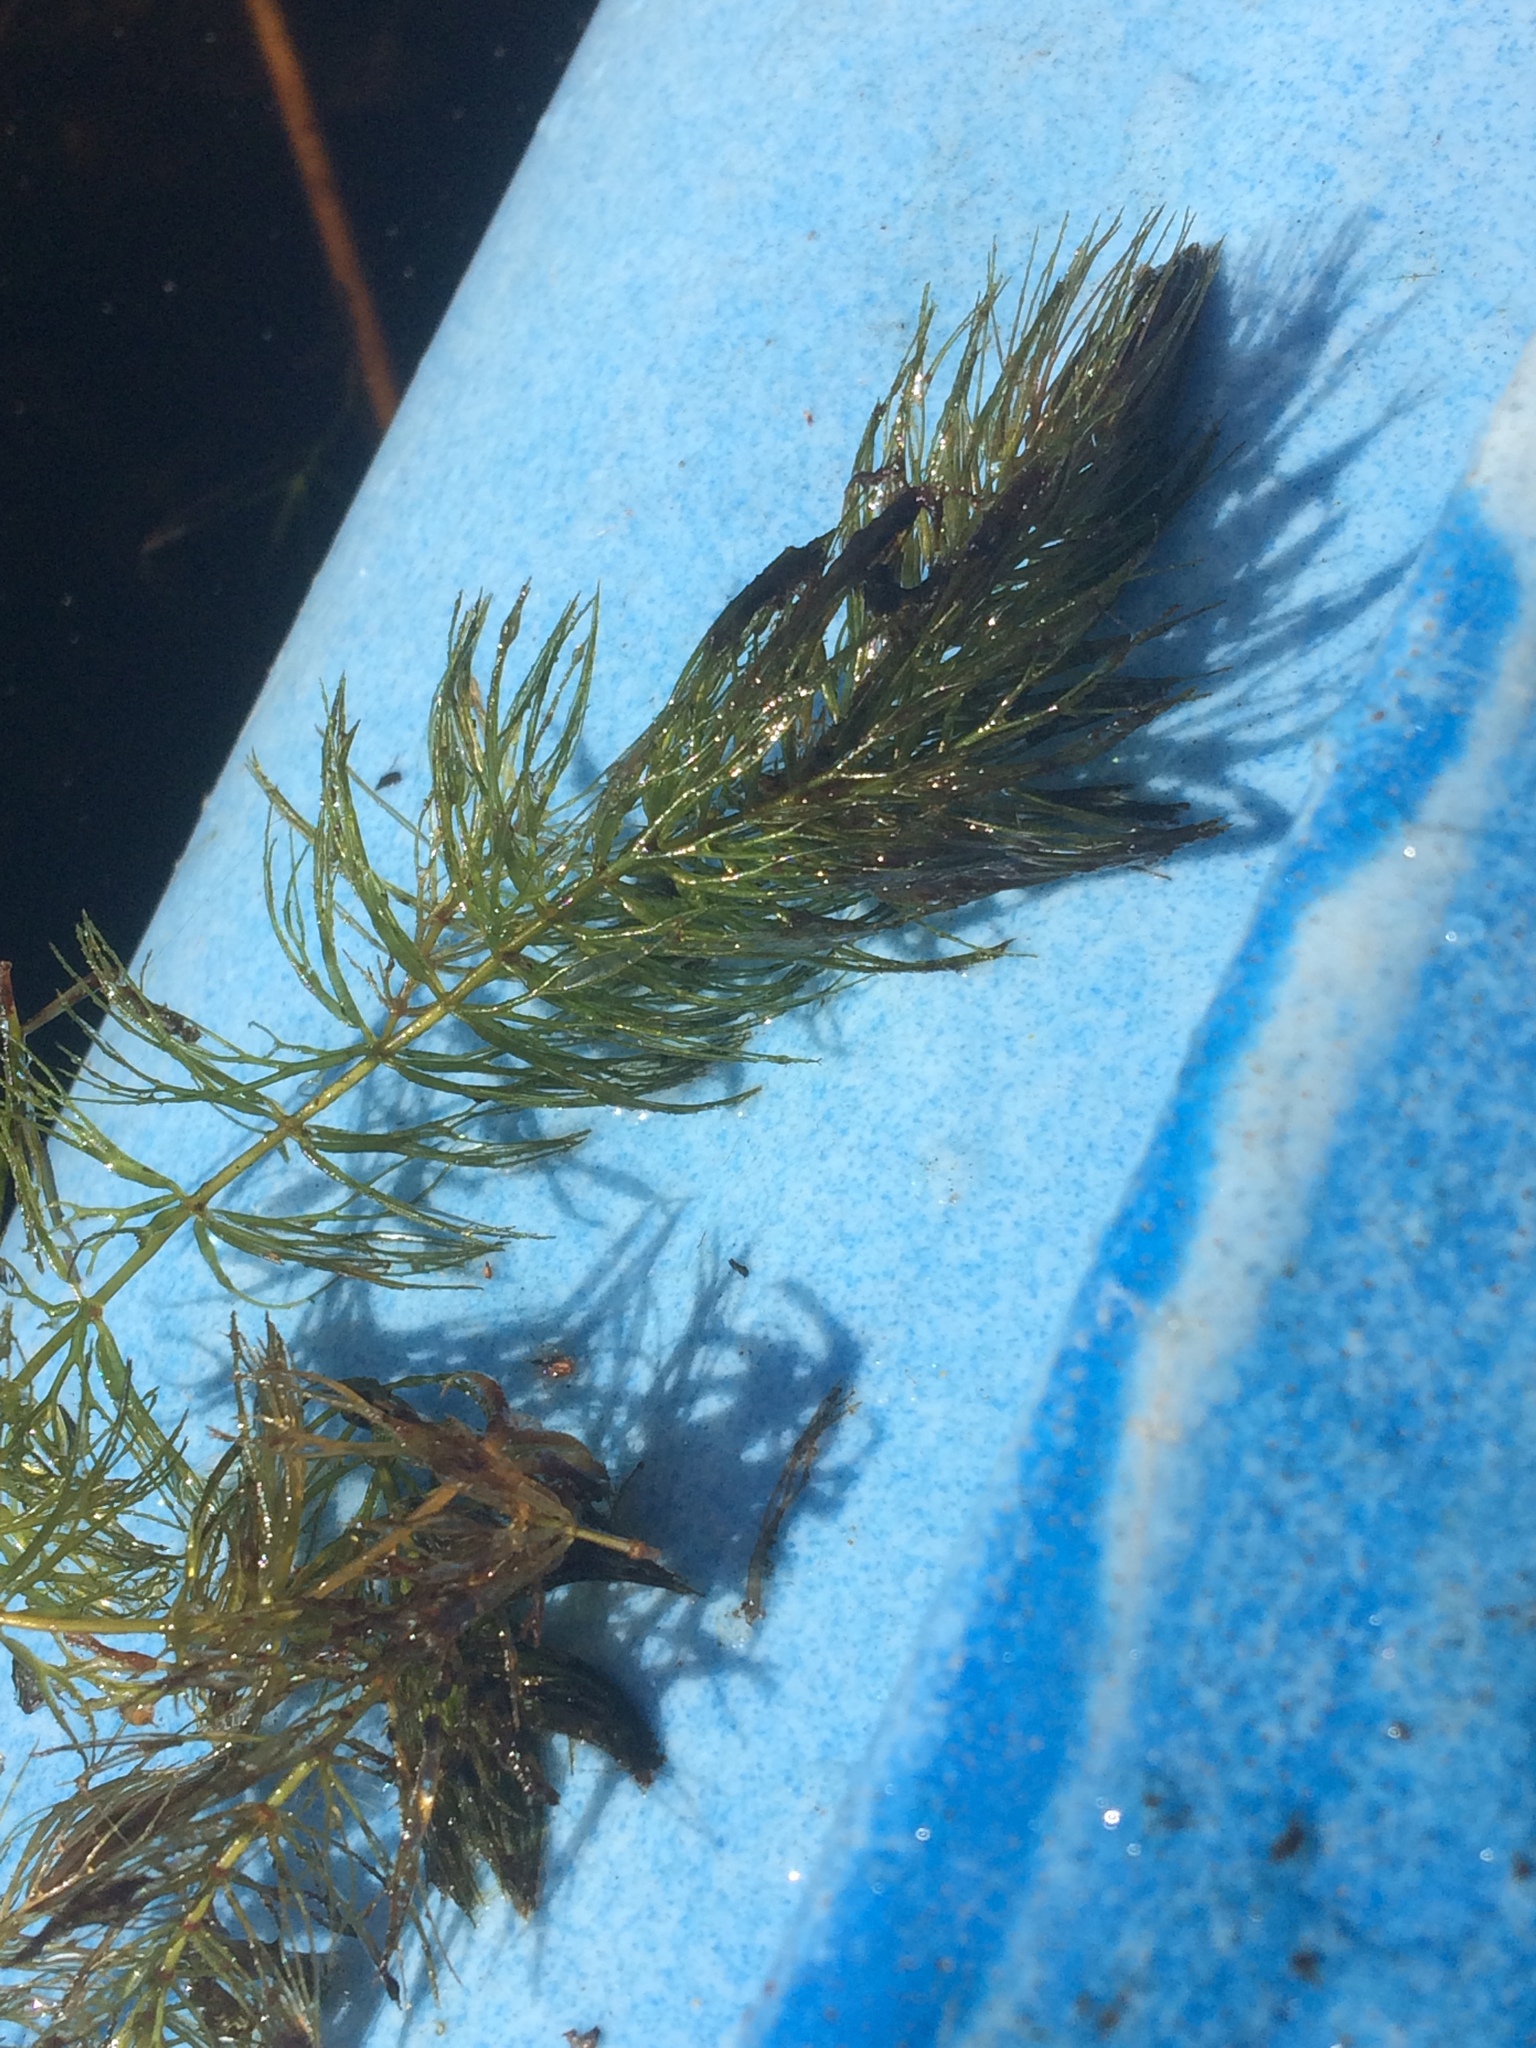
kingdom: Plantae
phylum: Tracheophyta
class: Magnoliopsida
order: Ceratophyllales
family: Ceratophyllaceae
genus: Ceratophyllum
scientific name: Ceratophyllum echinatum
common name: Prickly coontail
